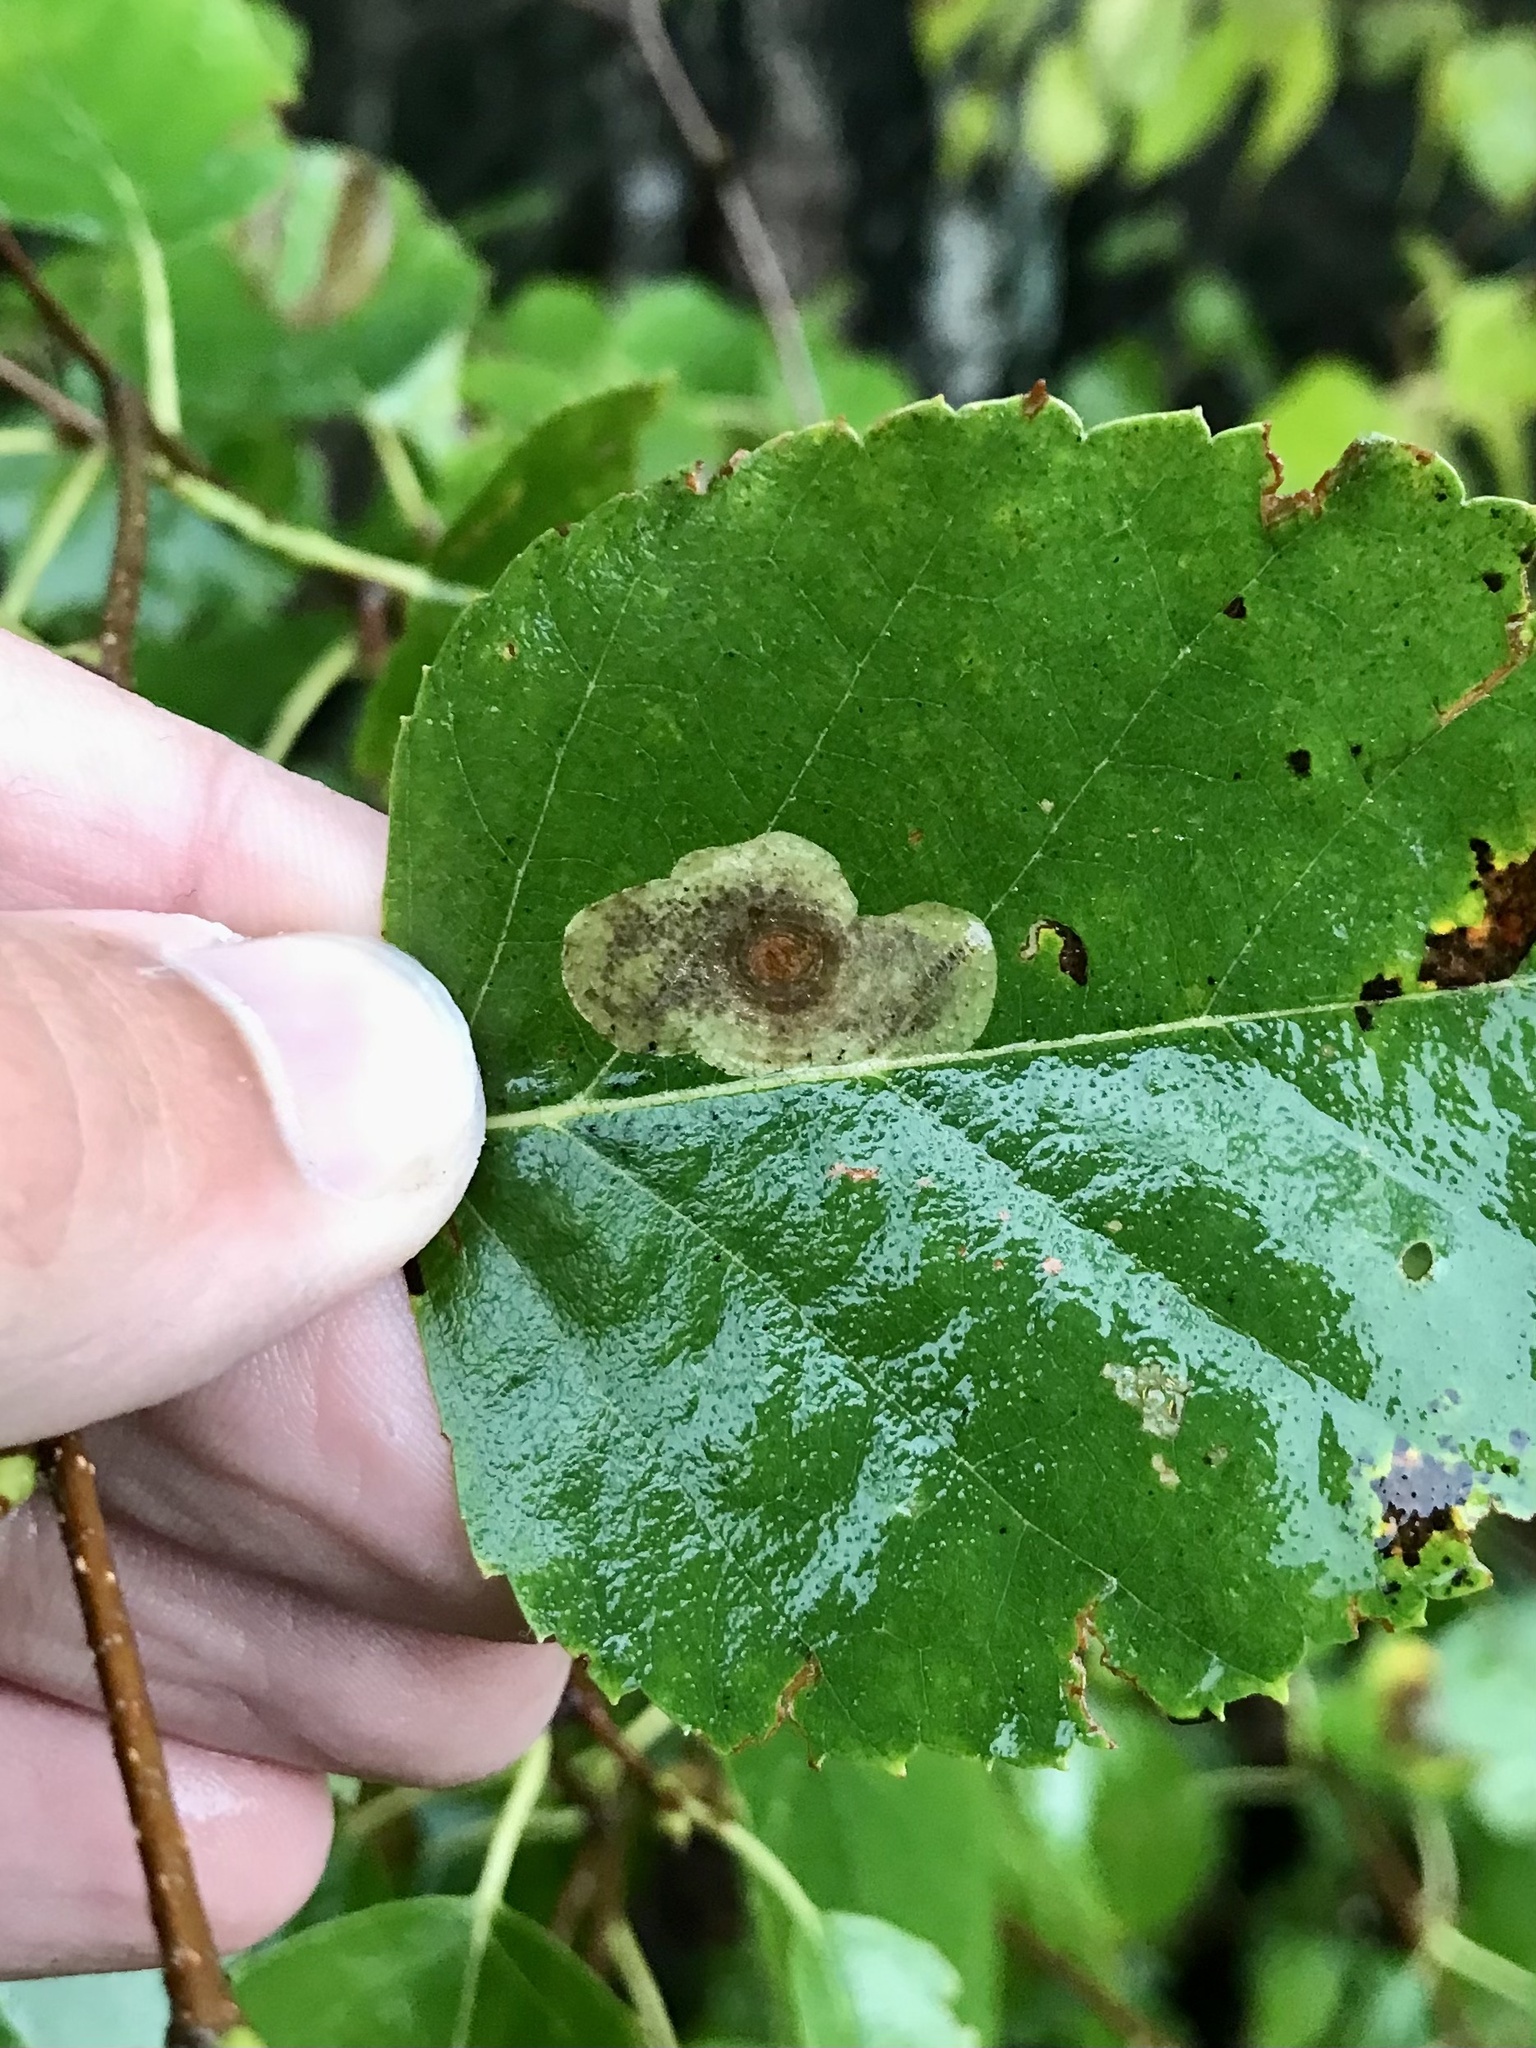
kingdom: Animalia
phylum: Arthropoda
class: Insecta
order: Lepidoptera
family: Gracillariidae
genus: Cameraria
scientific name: Cameraria betulivora
